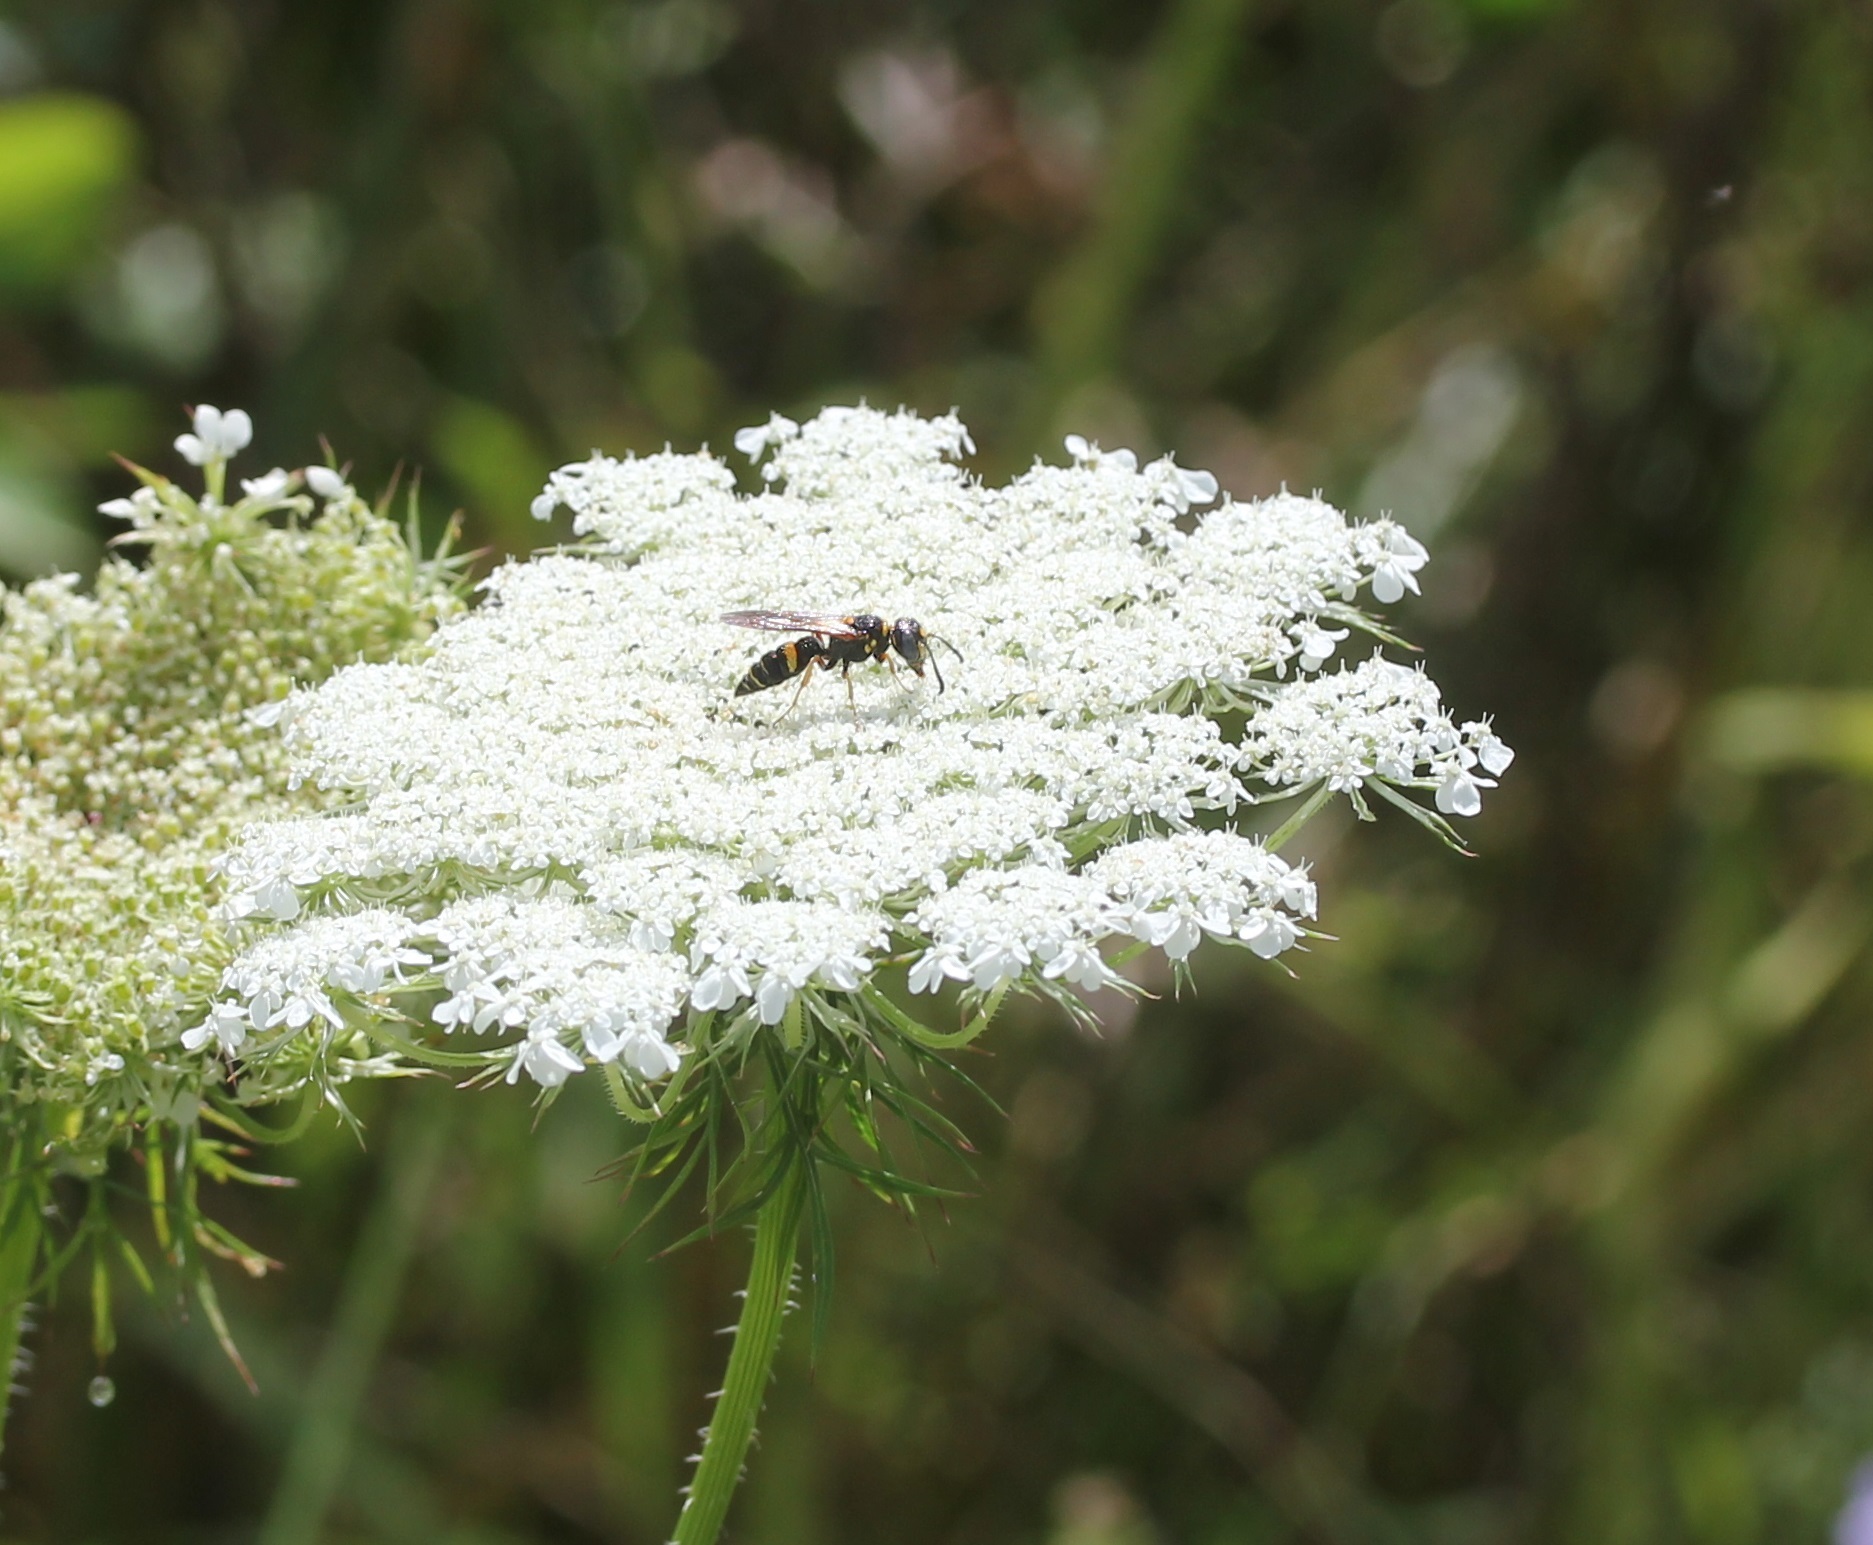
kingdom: Animalia
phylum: Arthropoda
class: Insecta
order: Hymenoptera
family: Crabronidae
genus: Philanthus
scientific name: Philanthus gibbosus
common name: Humped beewolf
